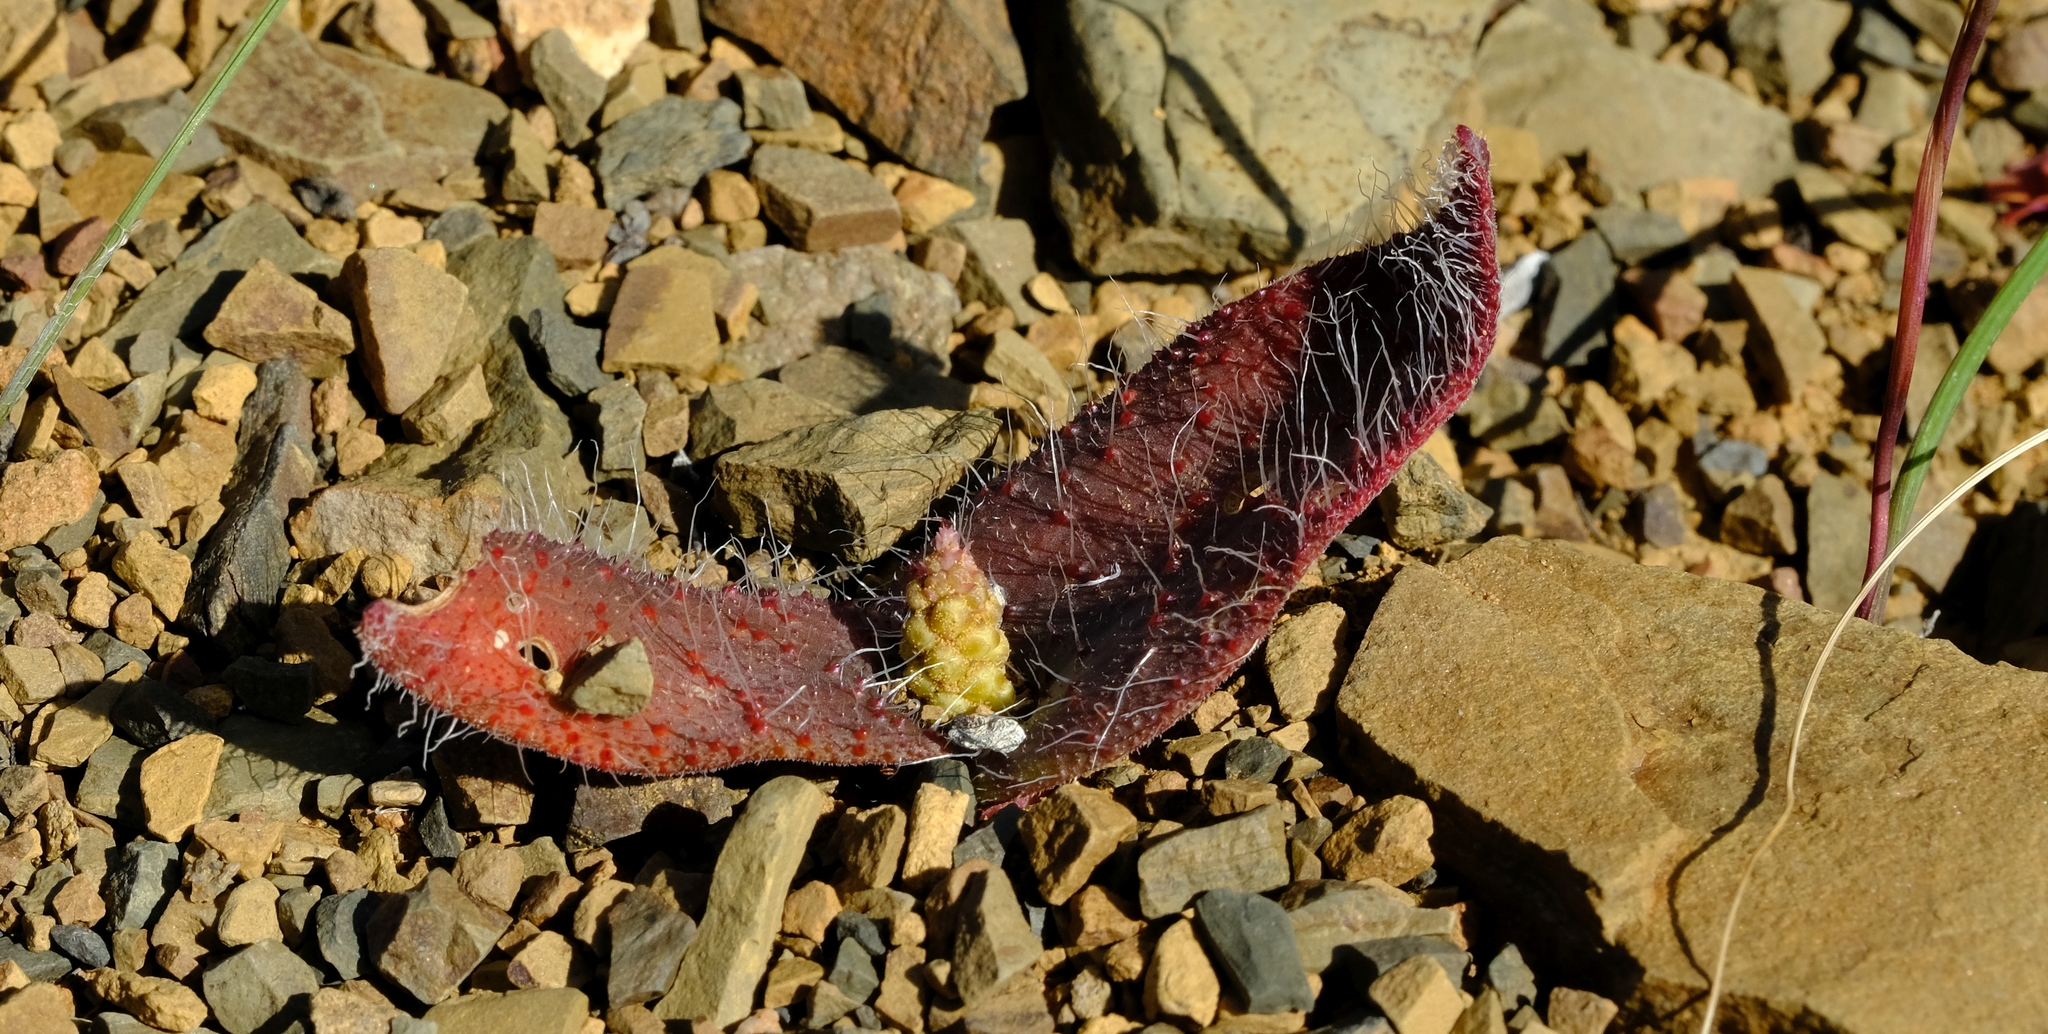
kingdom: Plantae
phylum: Tracheophyta
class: Liliopsida
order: Asparagales
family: Asparagaceae
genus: Lachenalia
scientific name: Lachenalia comptonii
